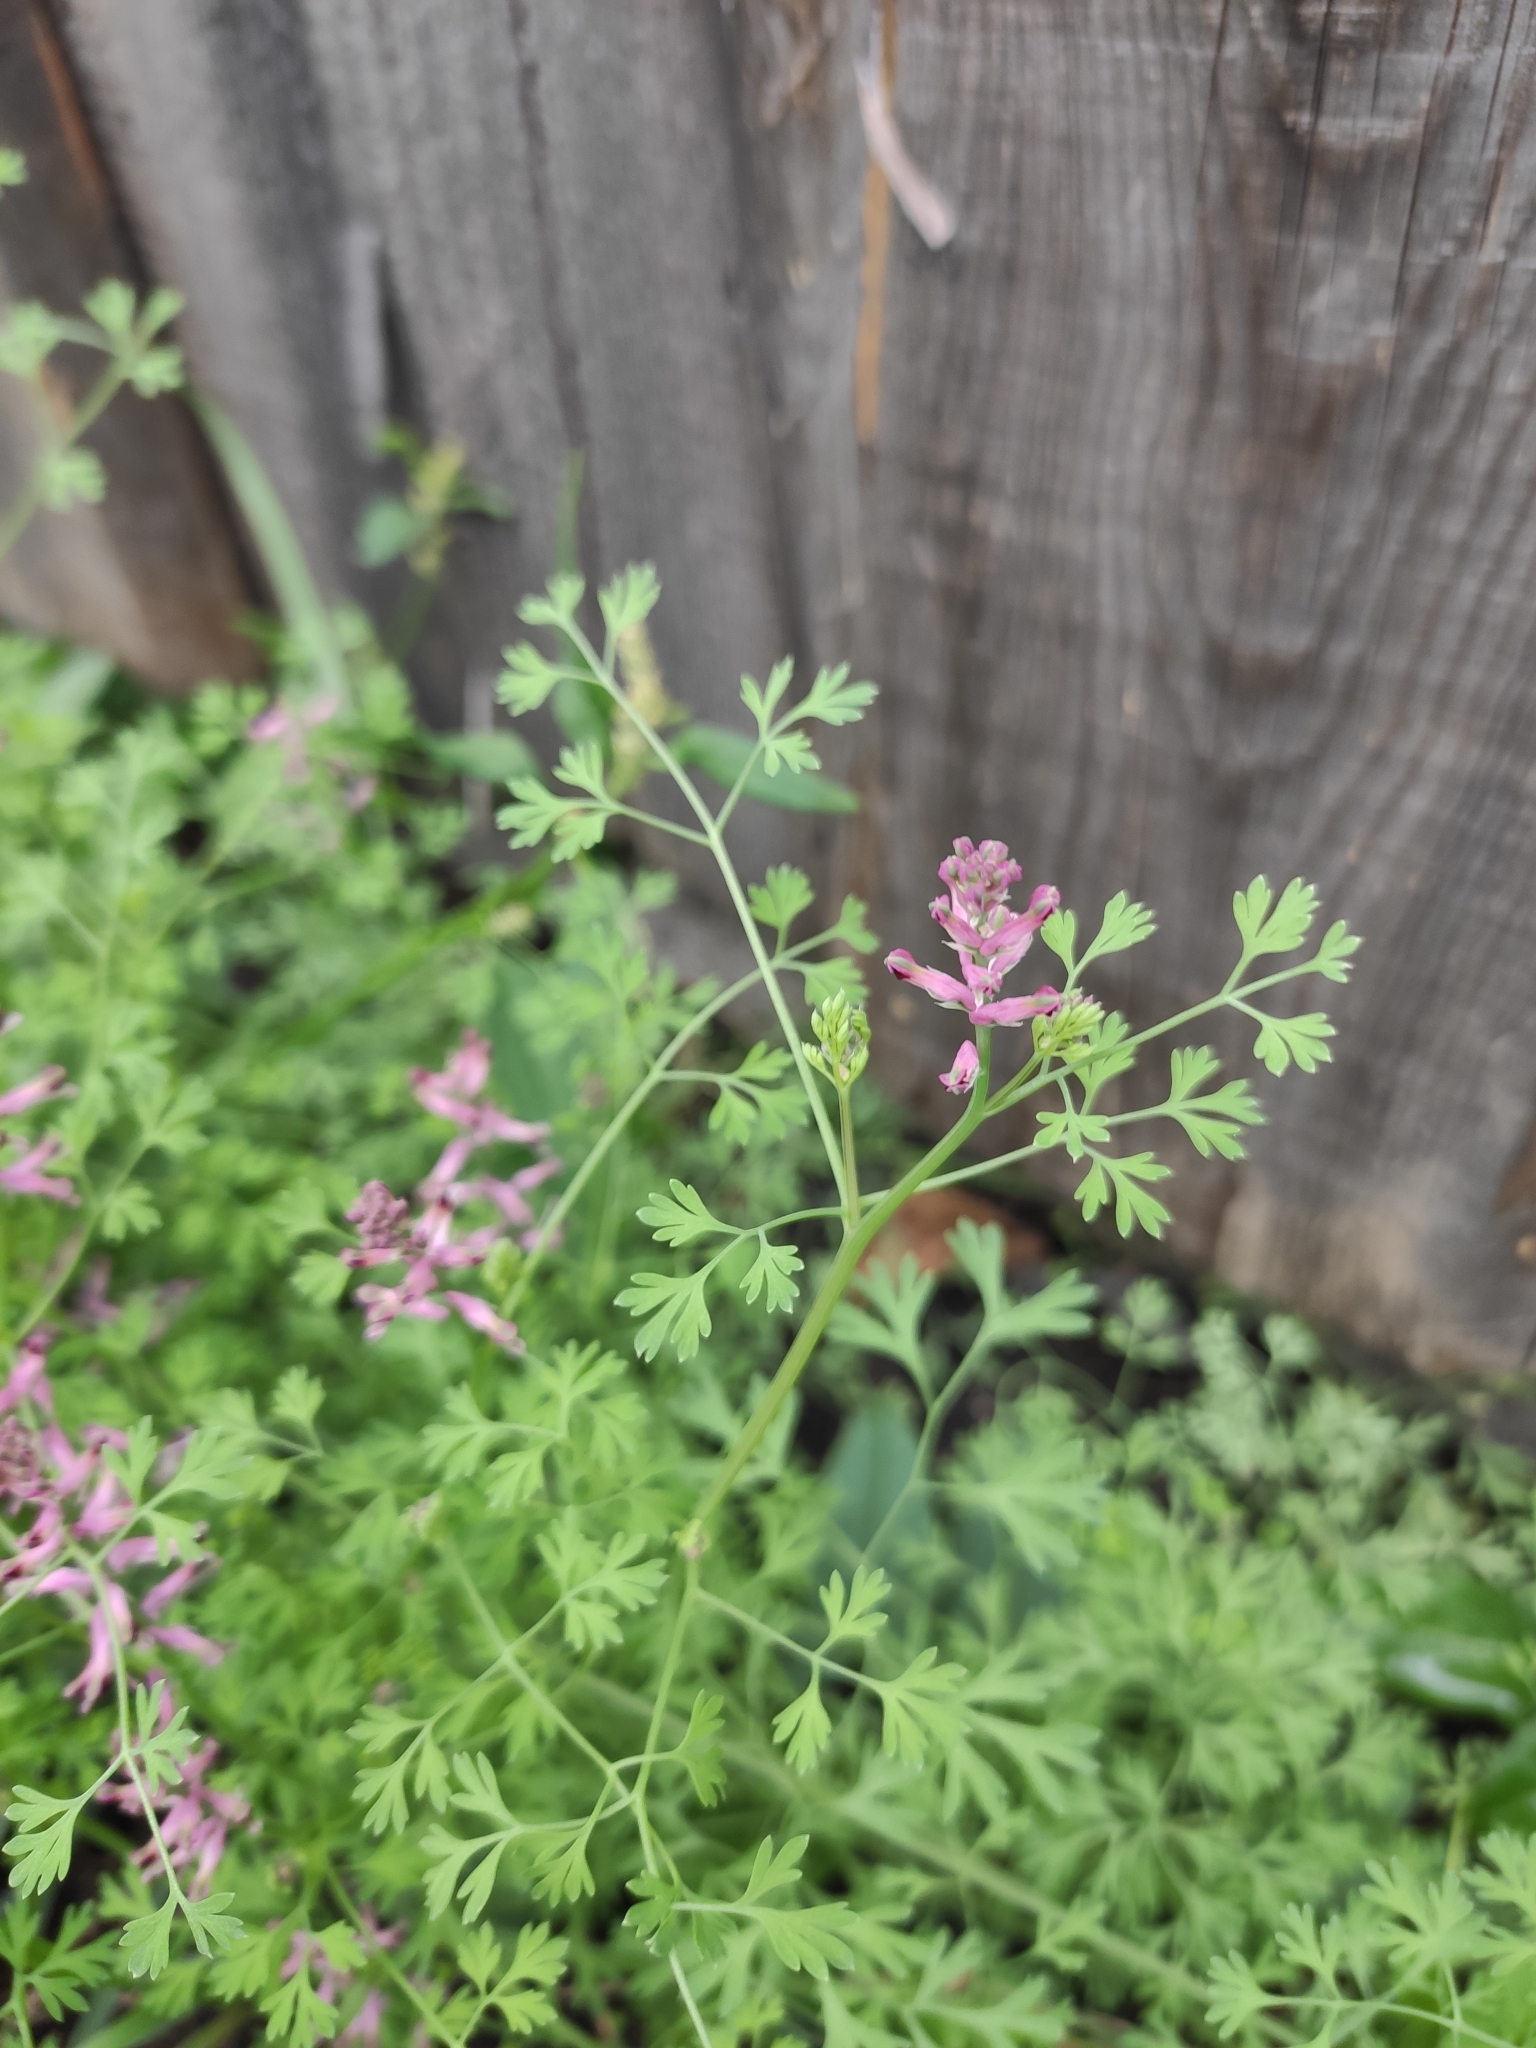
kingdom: Plantae
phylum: Tracheophyta
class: Magnoliopsida
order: Ranunculales
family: Papaveraceae
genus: Fumaria
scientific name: Fumaria officinalis
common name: Common fumitory
